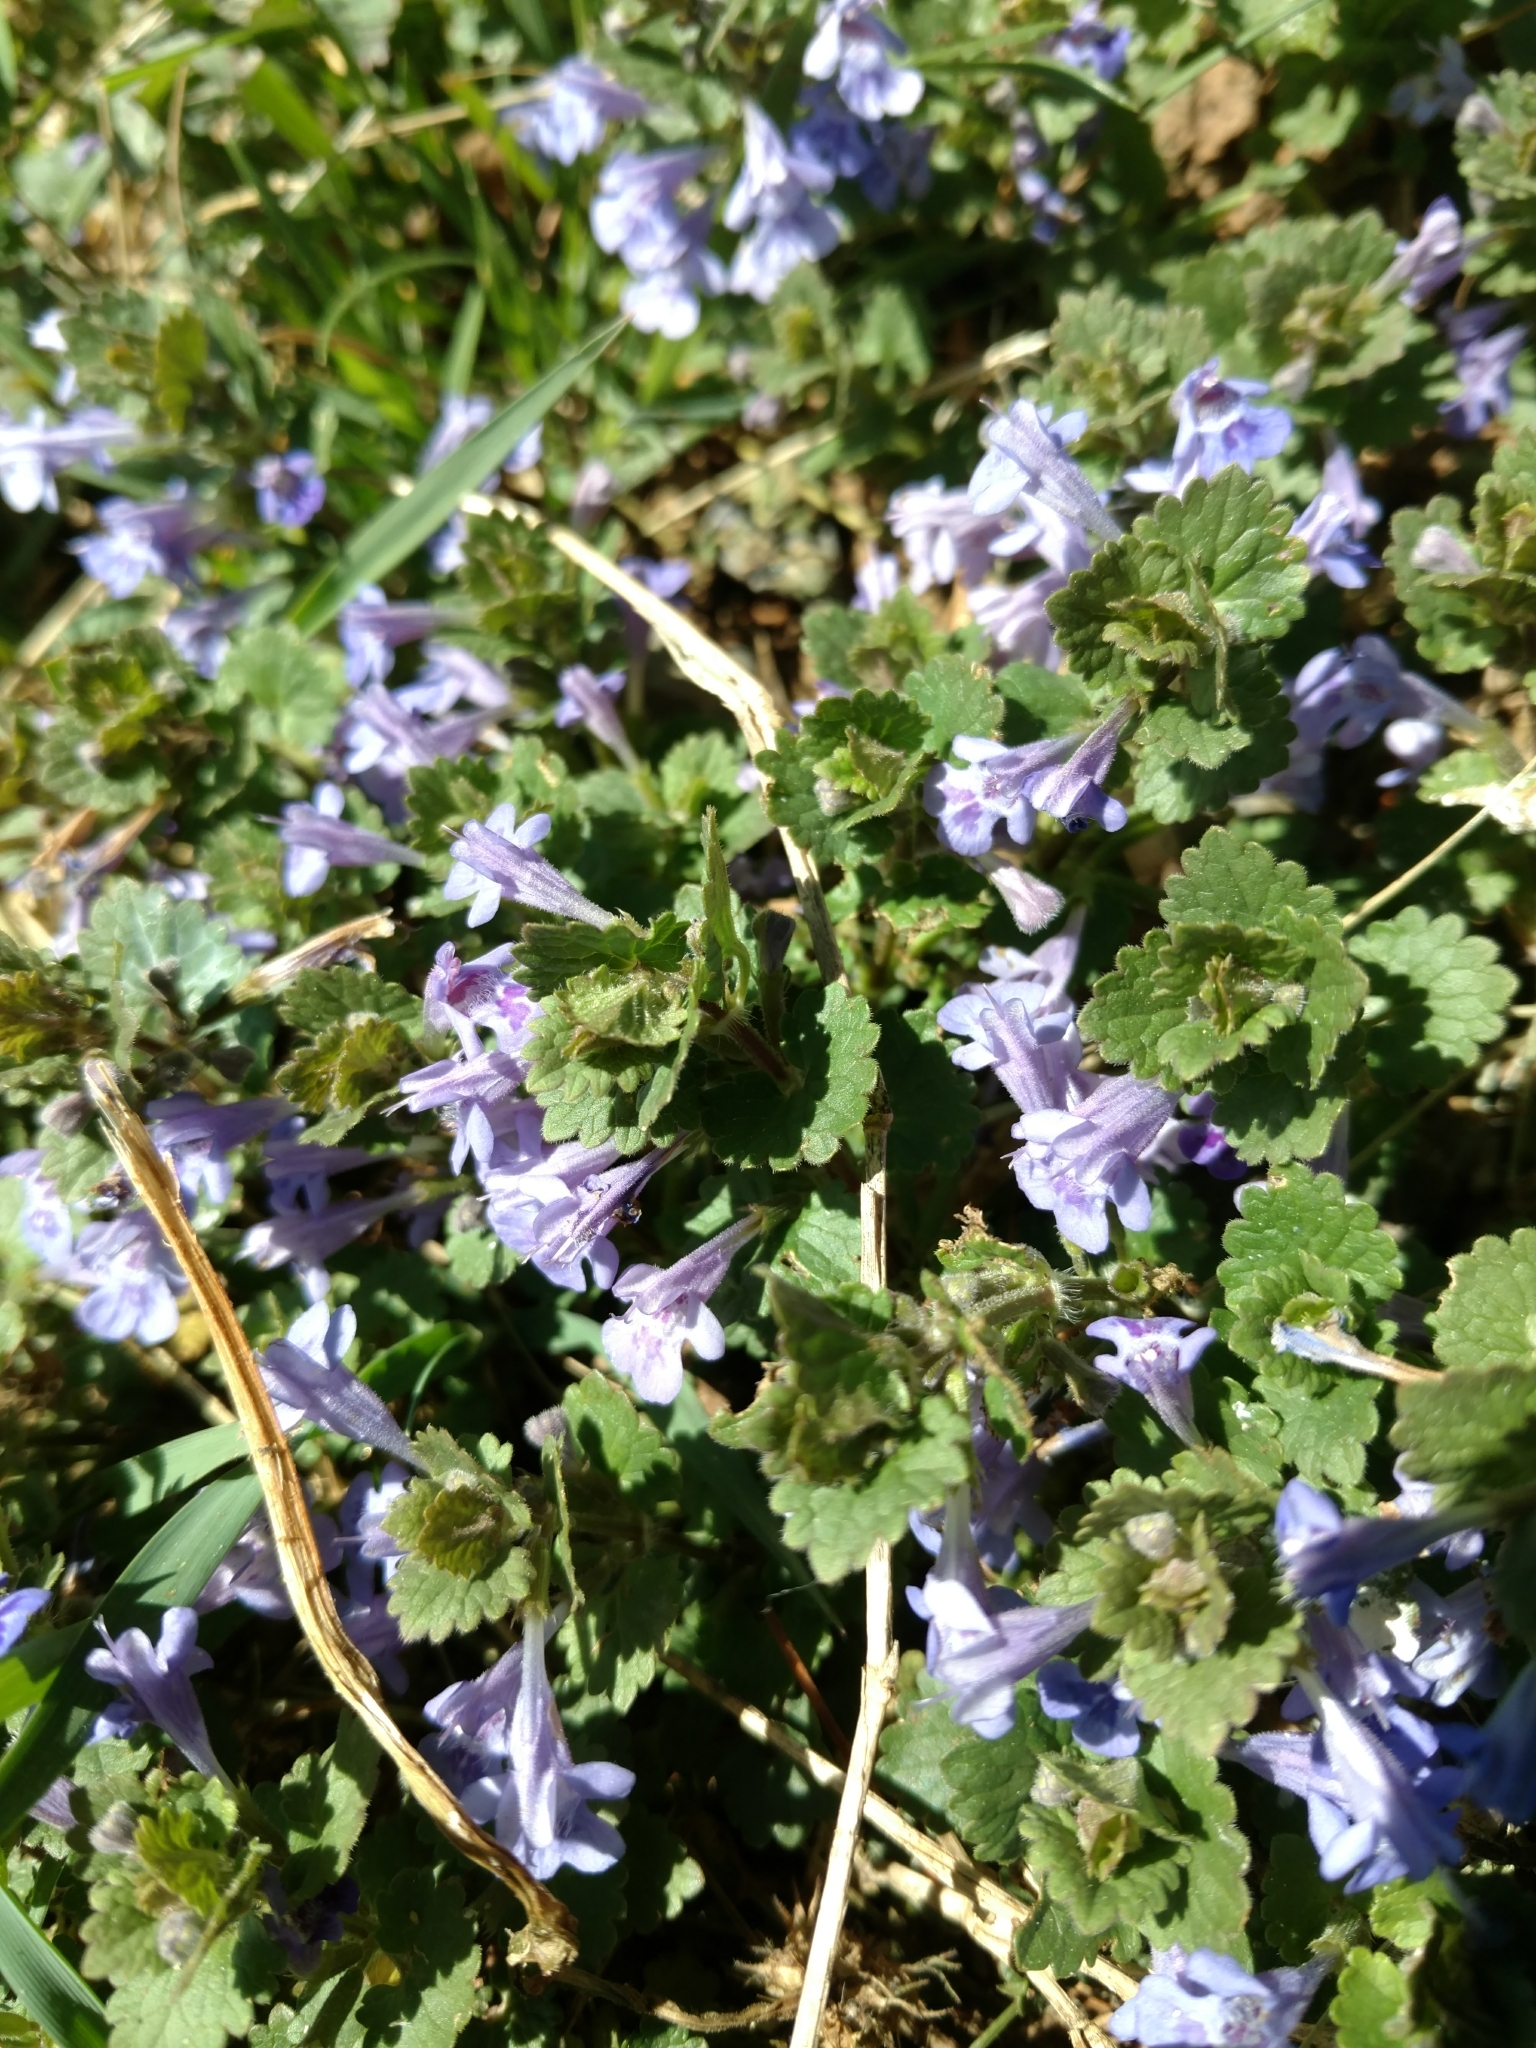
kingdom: Plantae
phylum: Tracheophyta
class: Magnoliopsida
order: Lamiales
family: Lamiaceae
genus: Glechoma
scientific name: Glechoma hederacea
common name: Ground ivy
